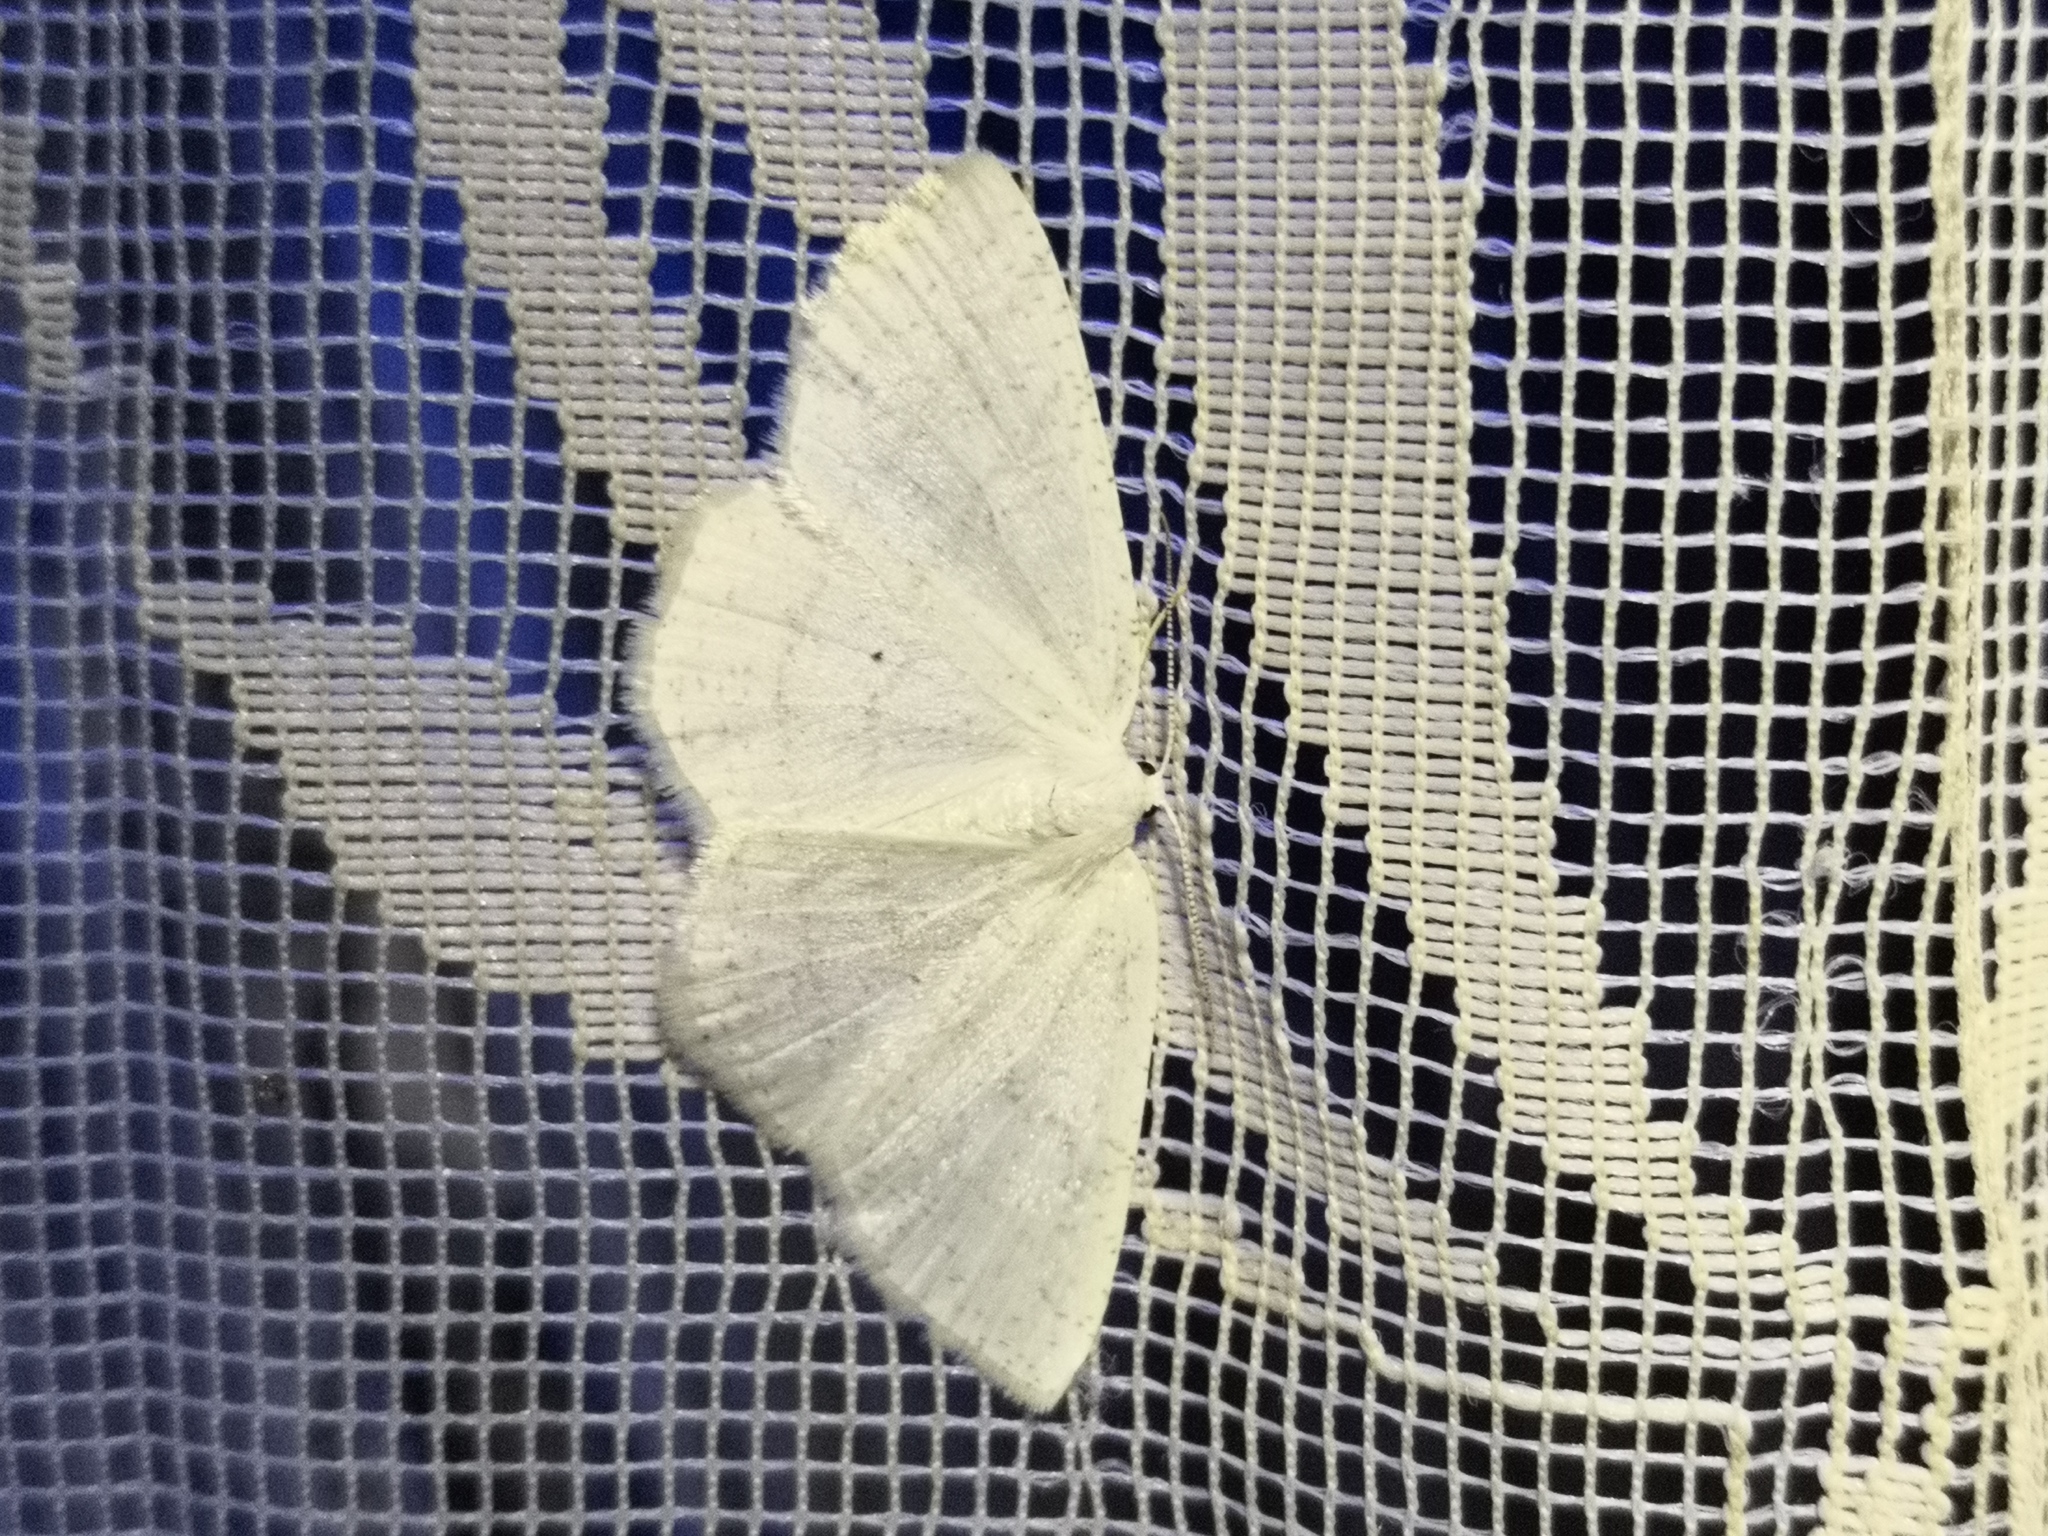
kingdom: Animalia
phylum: Arthropoda
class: Insecta
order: Lepidoptera
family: Geometridae
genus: Cabera
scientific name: Cabera pusaria
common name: Common white wave
